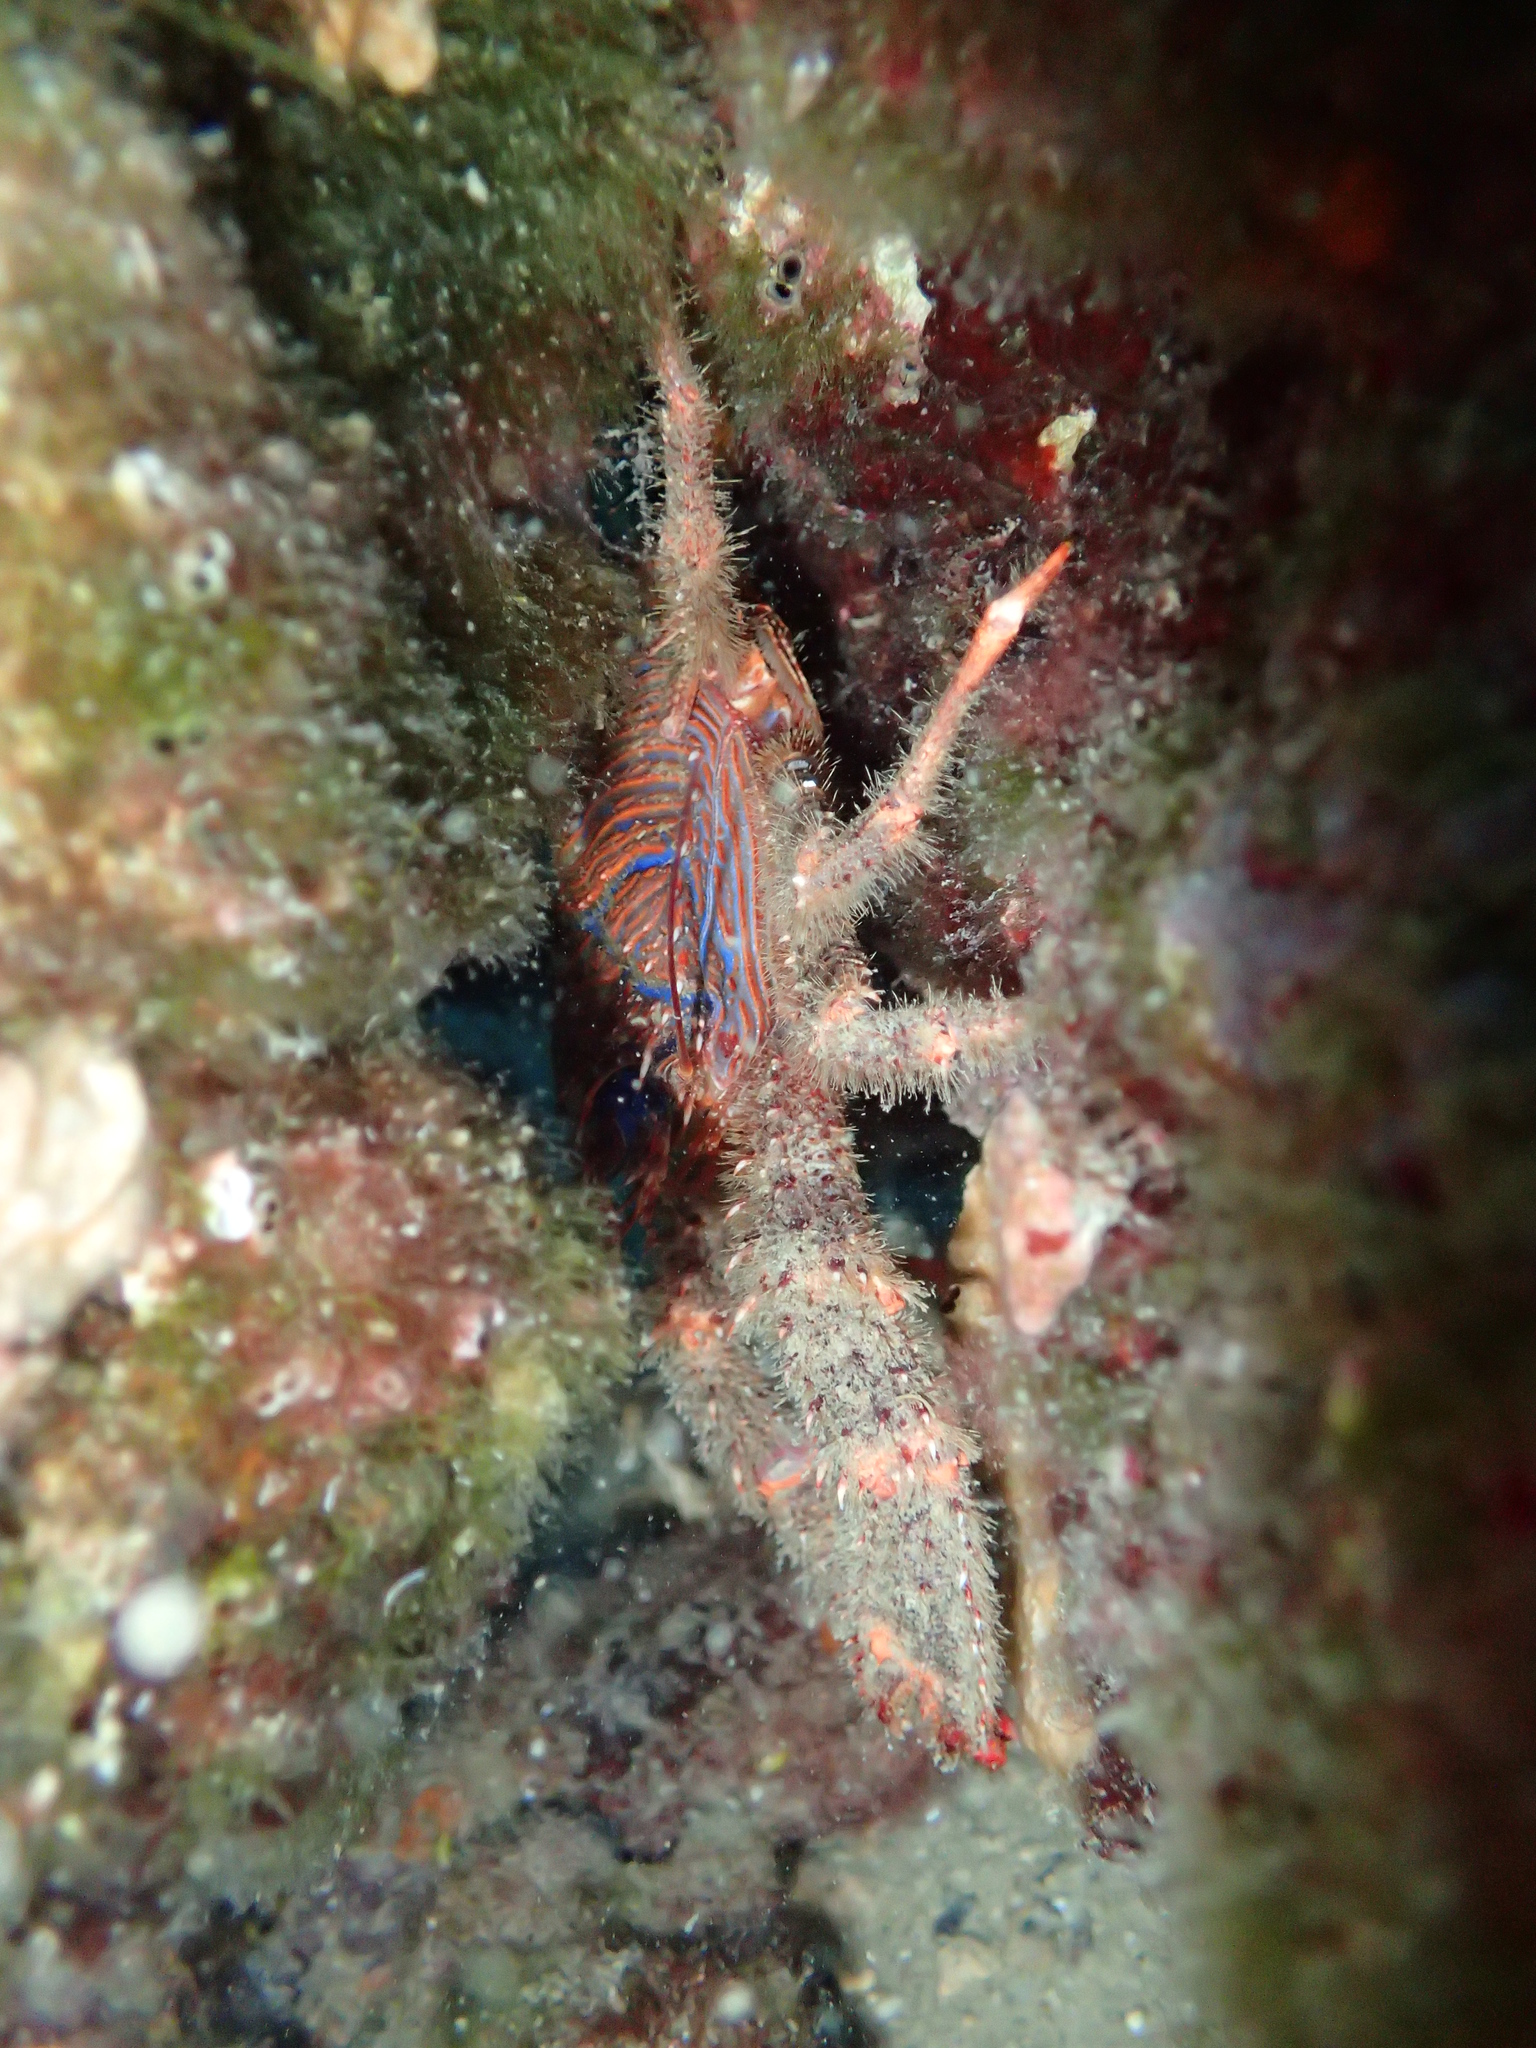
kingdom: Animalia
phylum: Arthropoda
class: Malacostraca
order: Decapoda
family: Galatheidae
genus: Galathea
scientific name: Galathea strigosa
